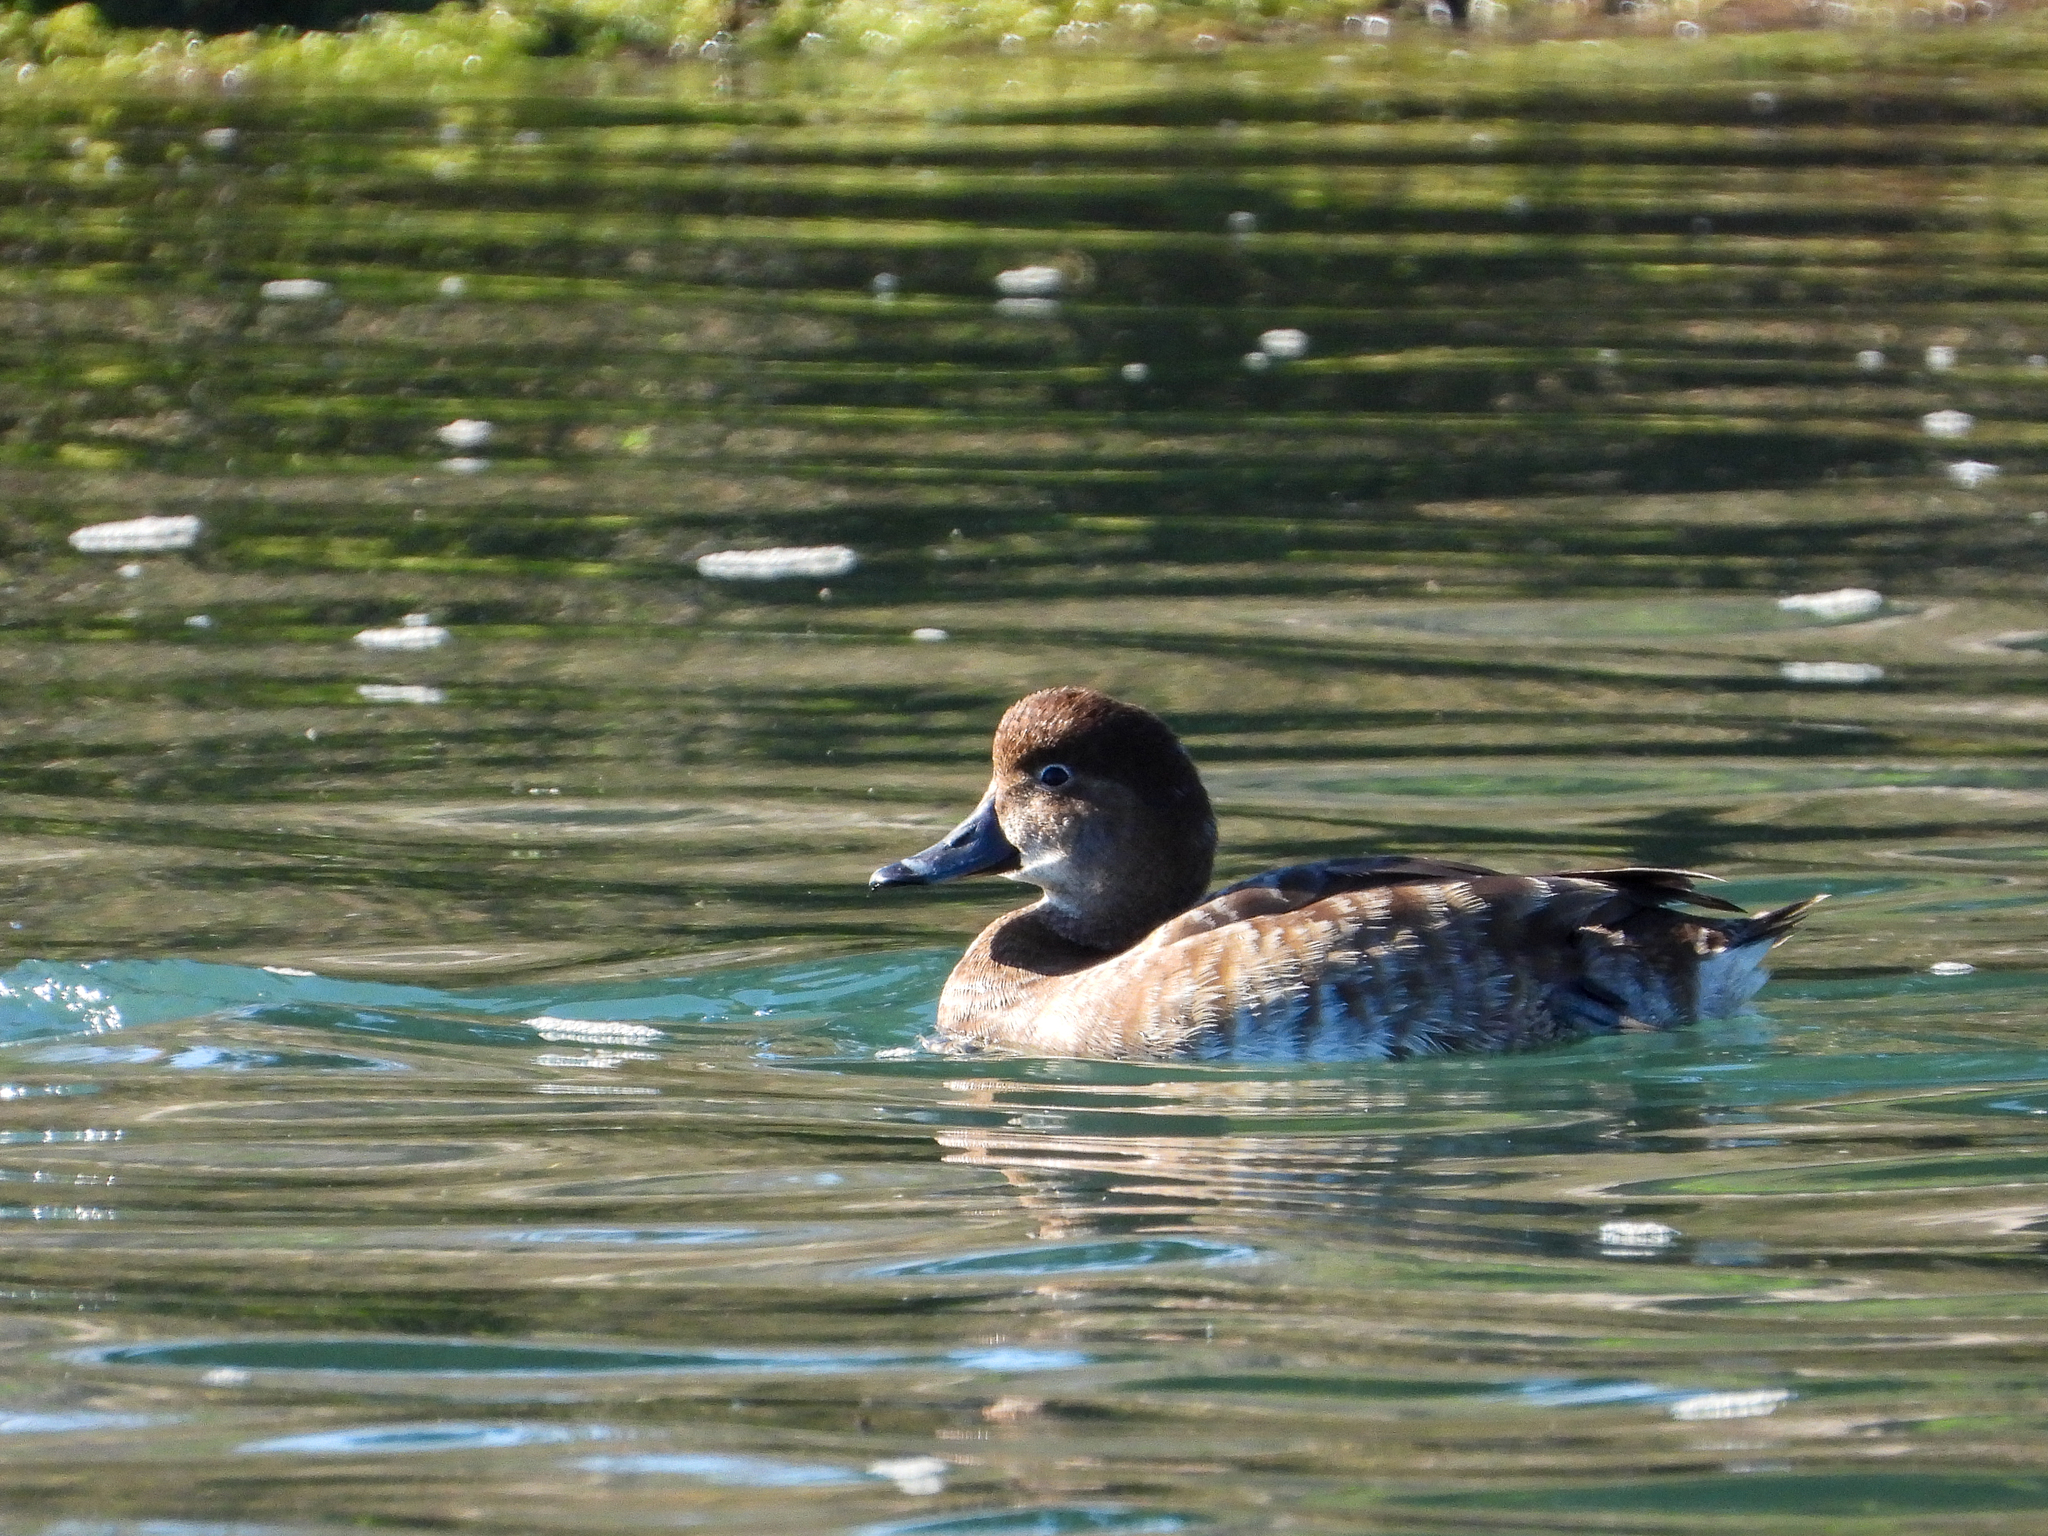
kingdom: Animalia
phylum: Chordata
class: Aves
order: Anseriformes
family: Anatidae
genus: Aythya
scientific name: Aythya americana
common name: Redhead
